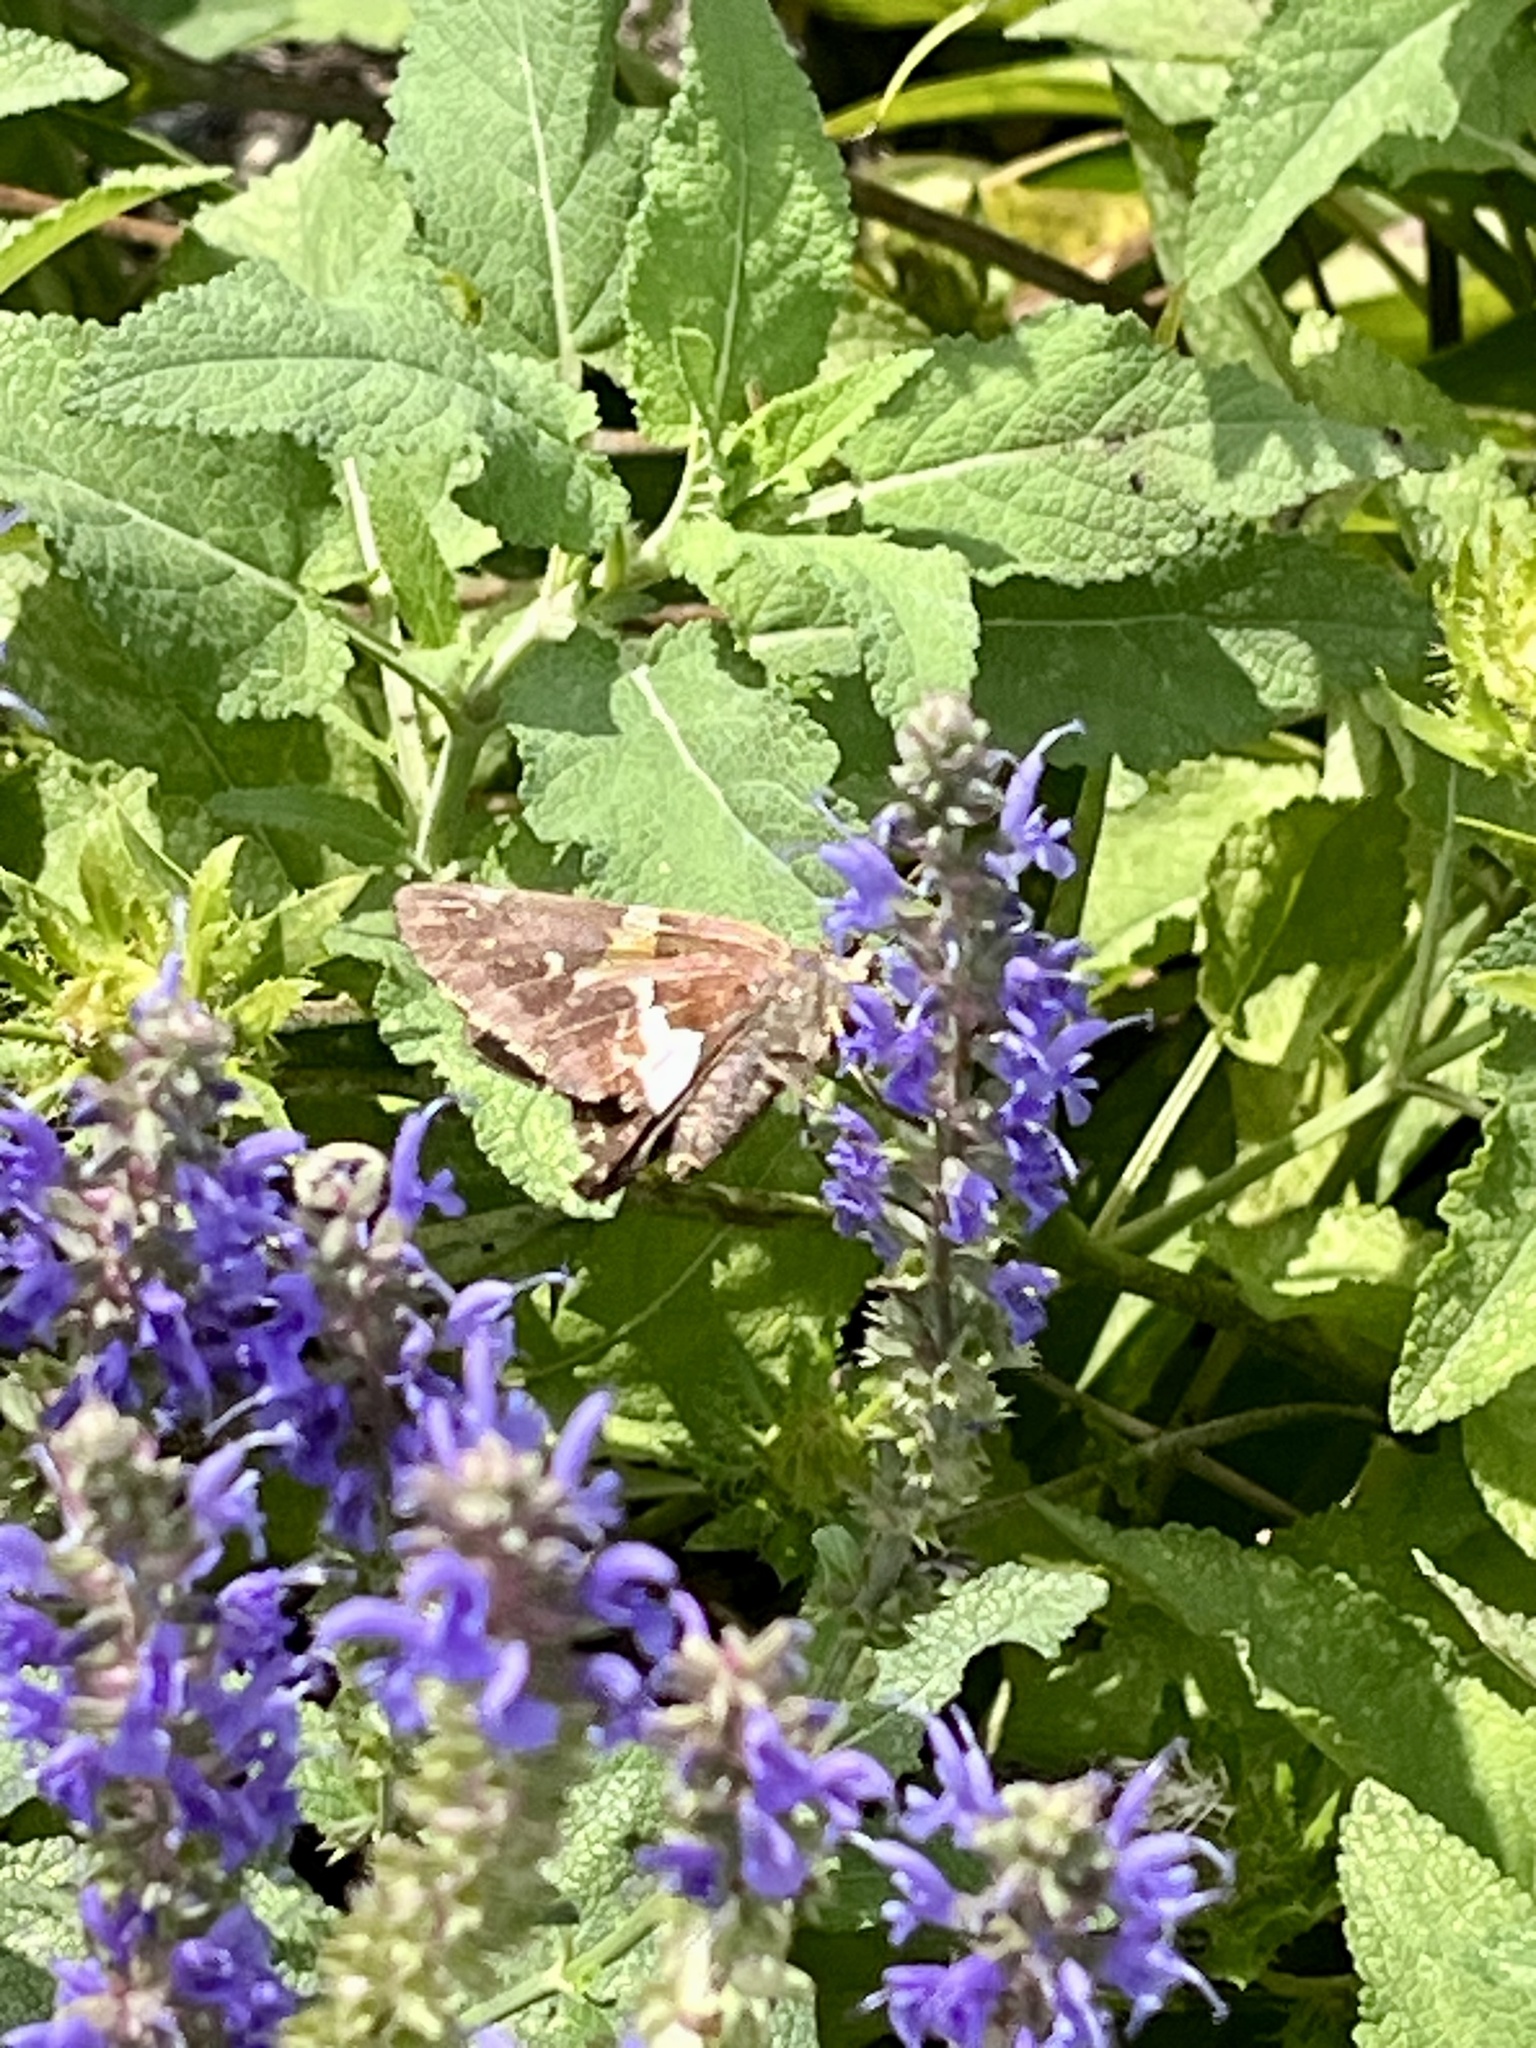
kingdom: Animalia
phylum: Arthropoda
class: Insecta
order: Lepidoptera
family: Hesperiidae
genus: Epargyreus
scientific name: Epargyreus clarus
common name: Silver-spotted skipper
